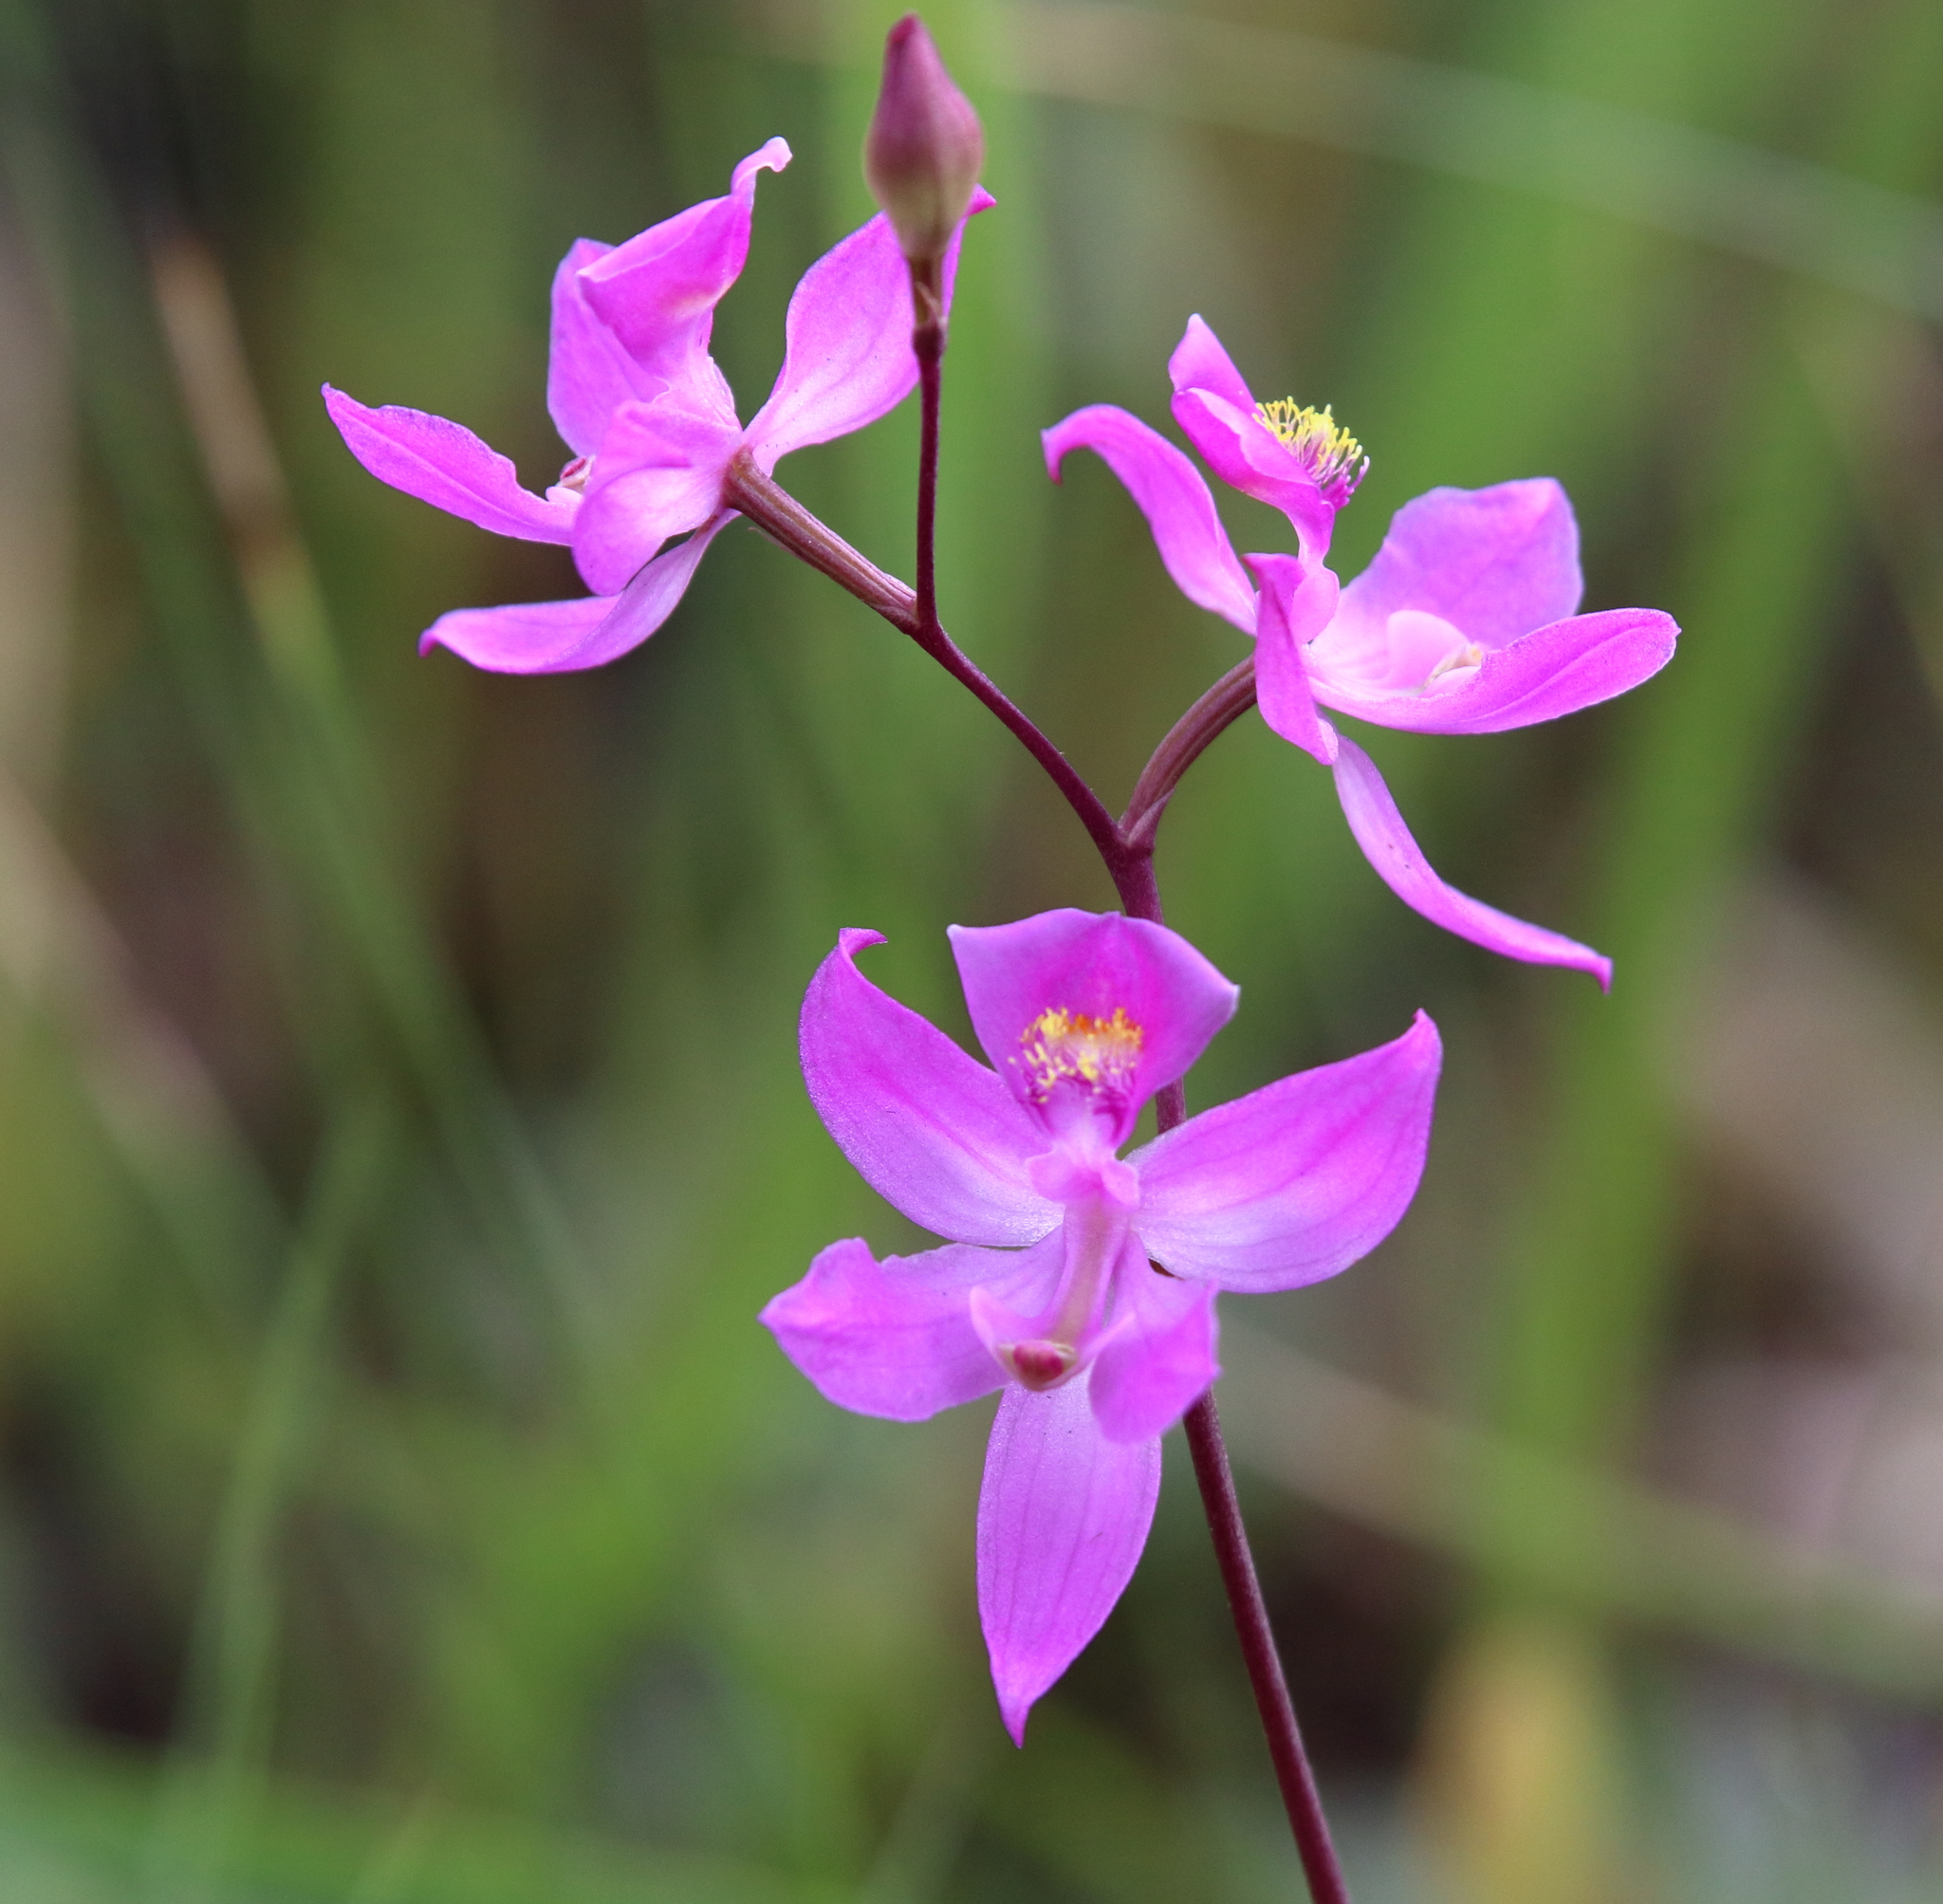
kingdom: Plantae
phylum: Tracheophyta
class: Liliopsida
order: Asparagales
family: Orchidaceae
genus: Calopogon
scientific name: Calopogon multiflorus
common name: Many-flowered grass-pink orchid
